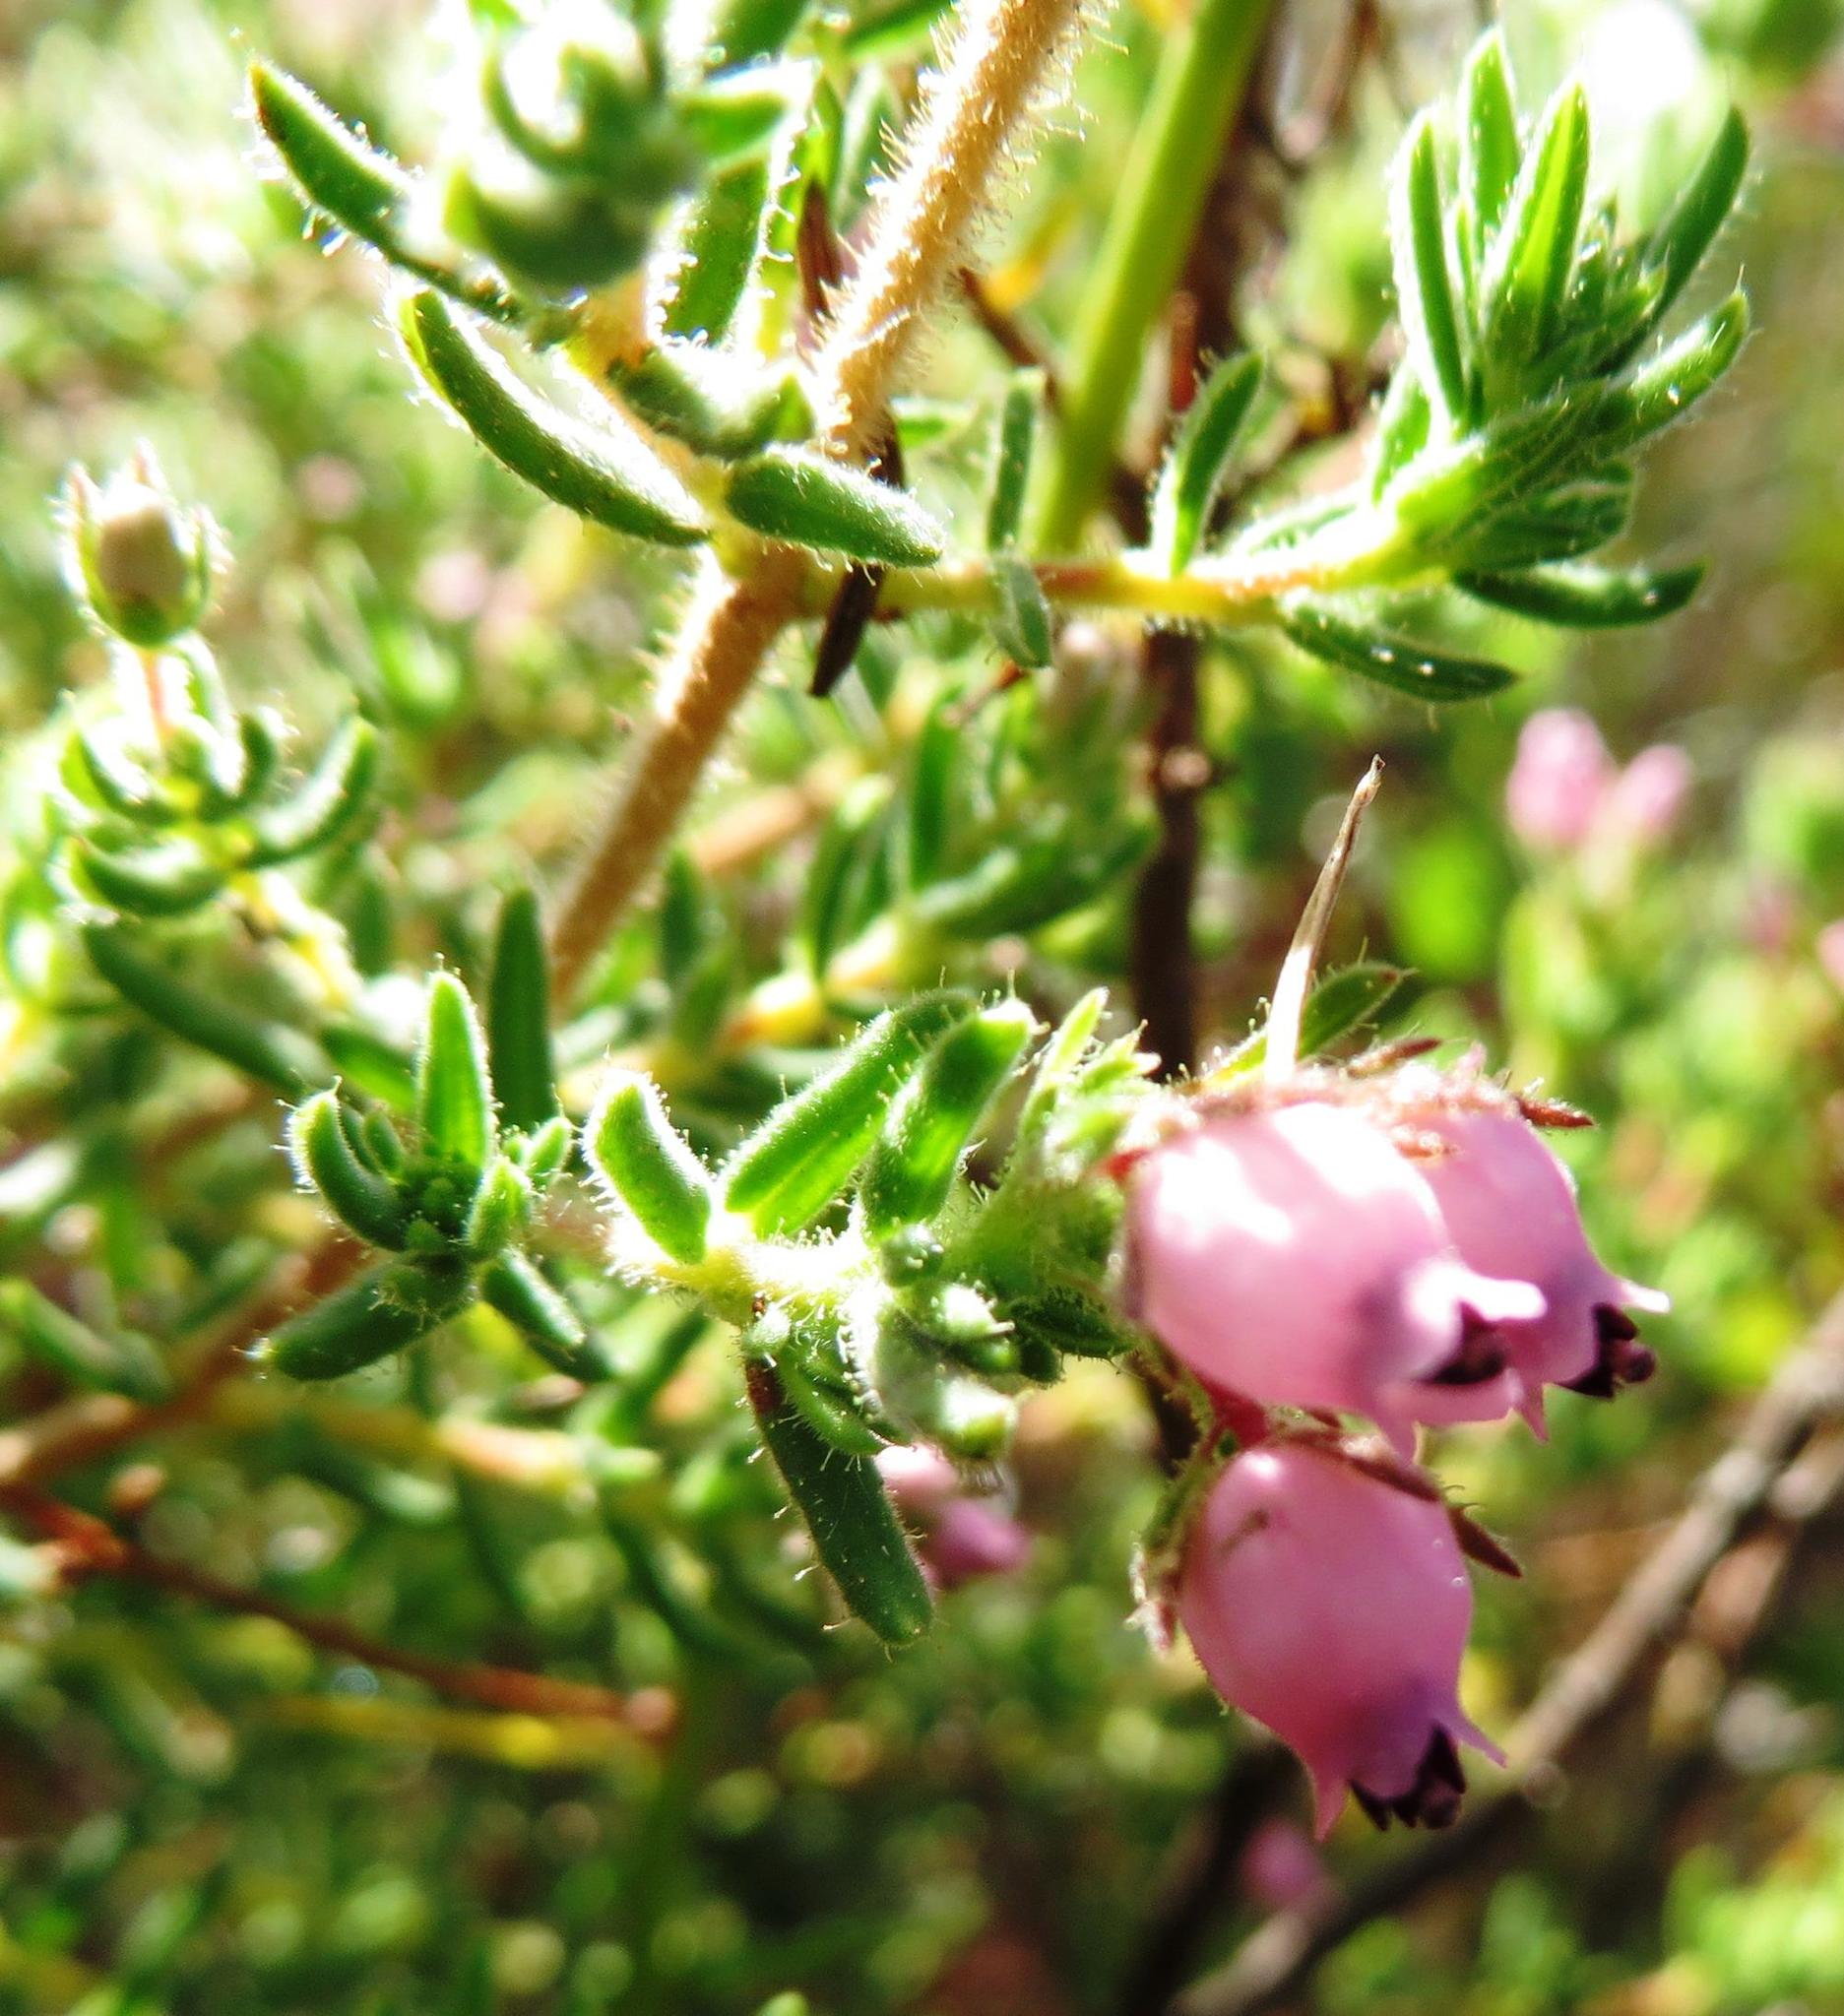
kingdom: Plantae
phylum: Tracheophyta
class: Magnoliopsida
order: Ericales
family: Ericaceae
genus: Erica
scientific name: Erica pubescens
